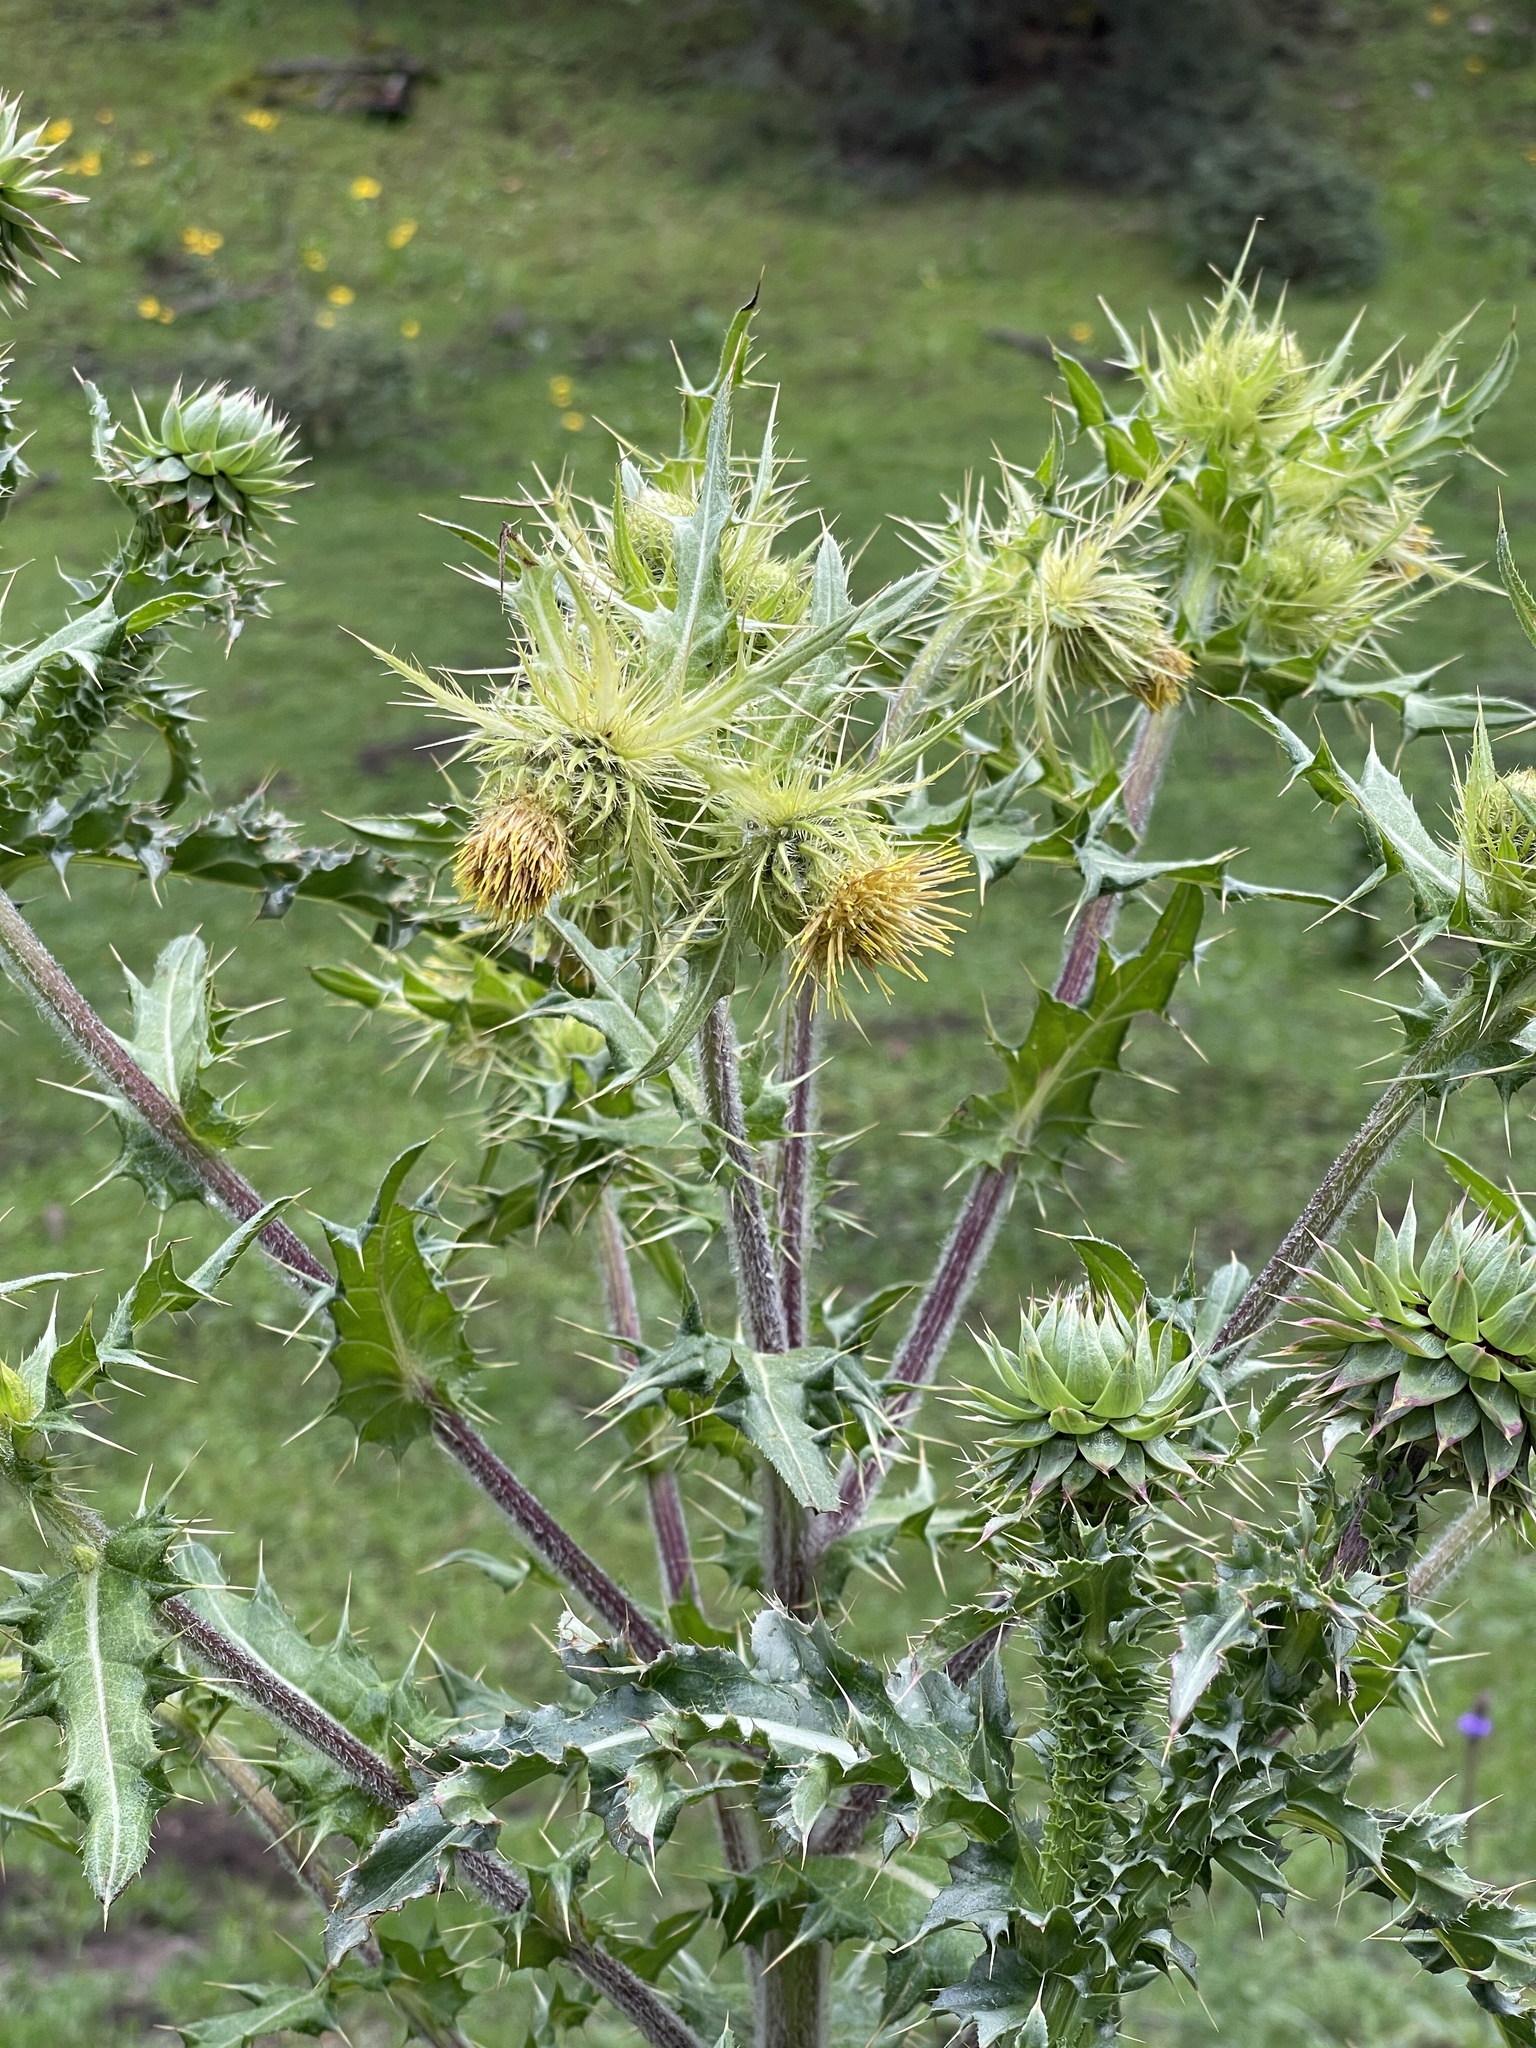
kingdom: Plantae
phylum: Tracheophyta
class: Magnoliopsida
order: Asterales
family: Asteraceae
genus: Cirsium
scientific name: Cirsium parryi
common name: Parry's thistle
